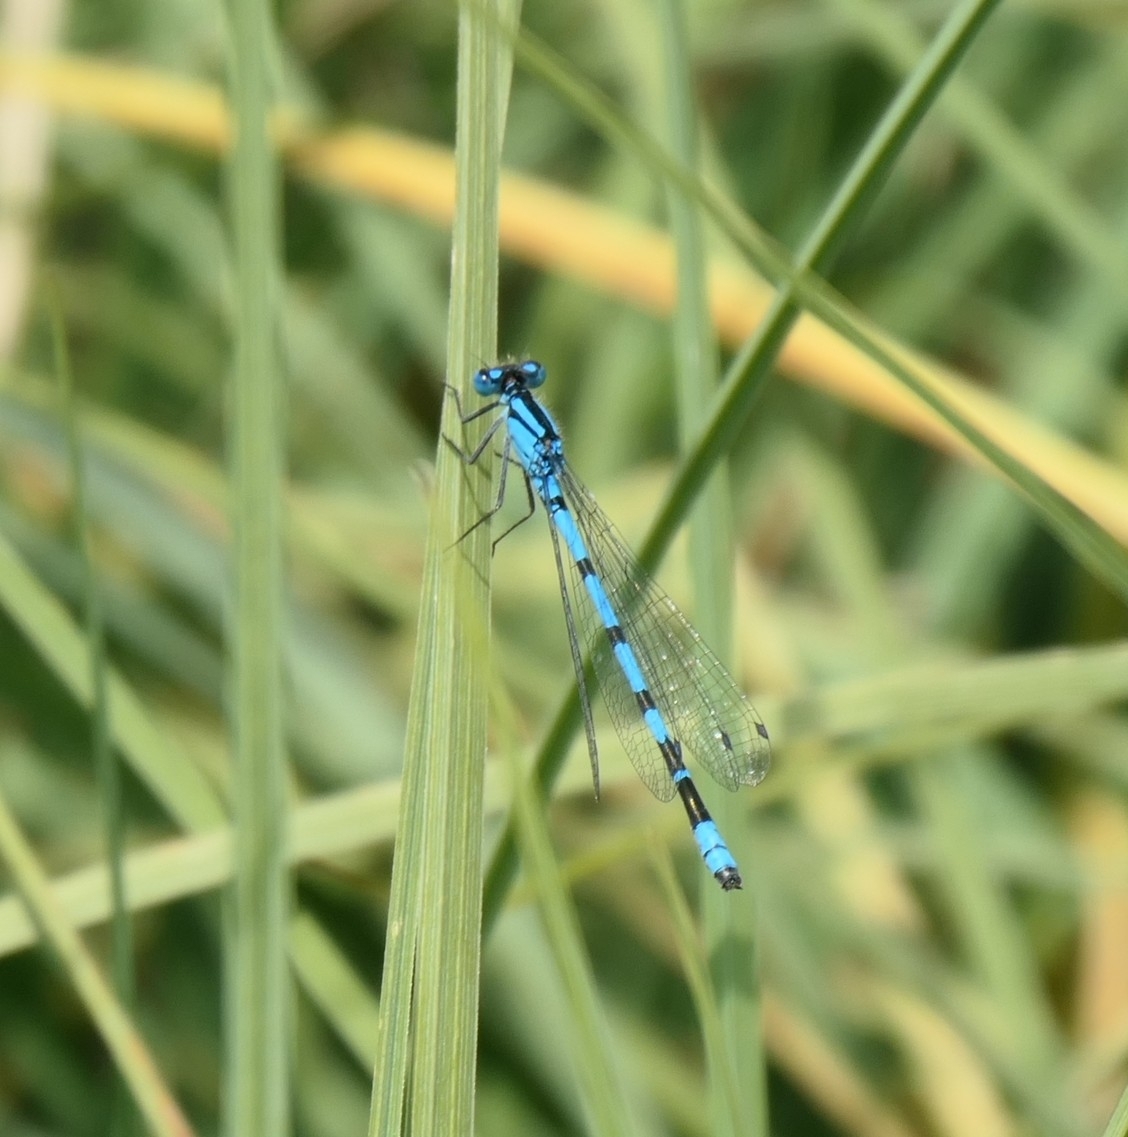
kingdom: Animalia
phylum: Arthropoda
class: Insecta
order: Odonata
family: Coenagrionidae
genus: Enallagma
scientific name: Enallagma cyathigerum
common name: Common blue damselfly
